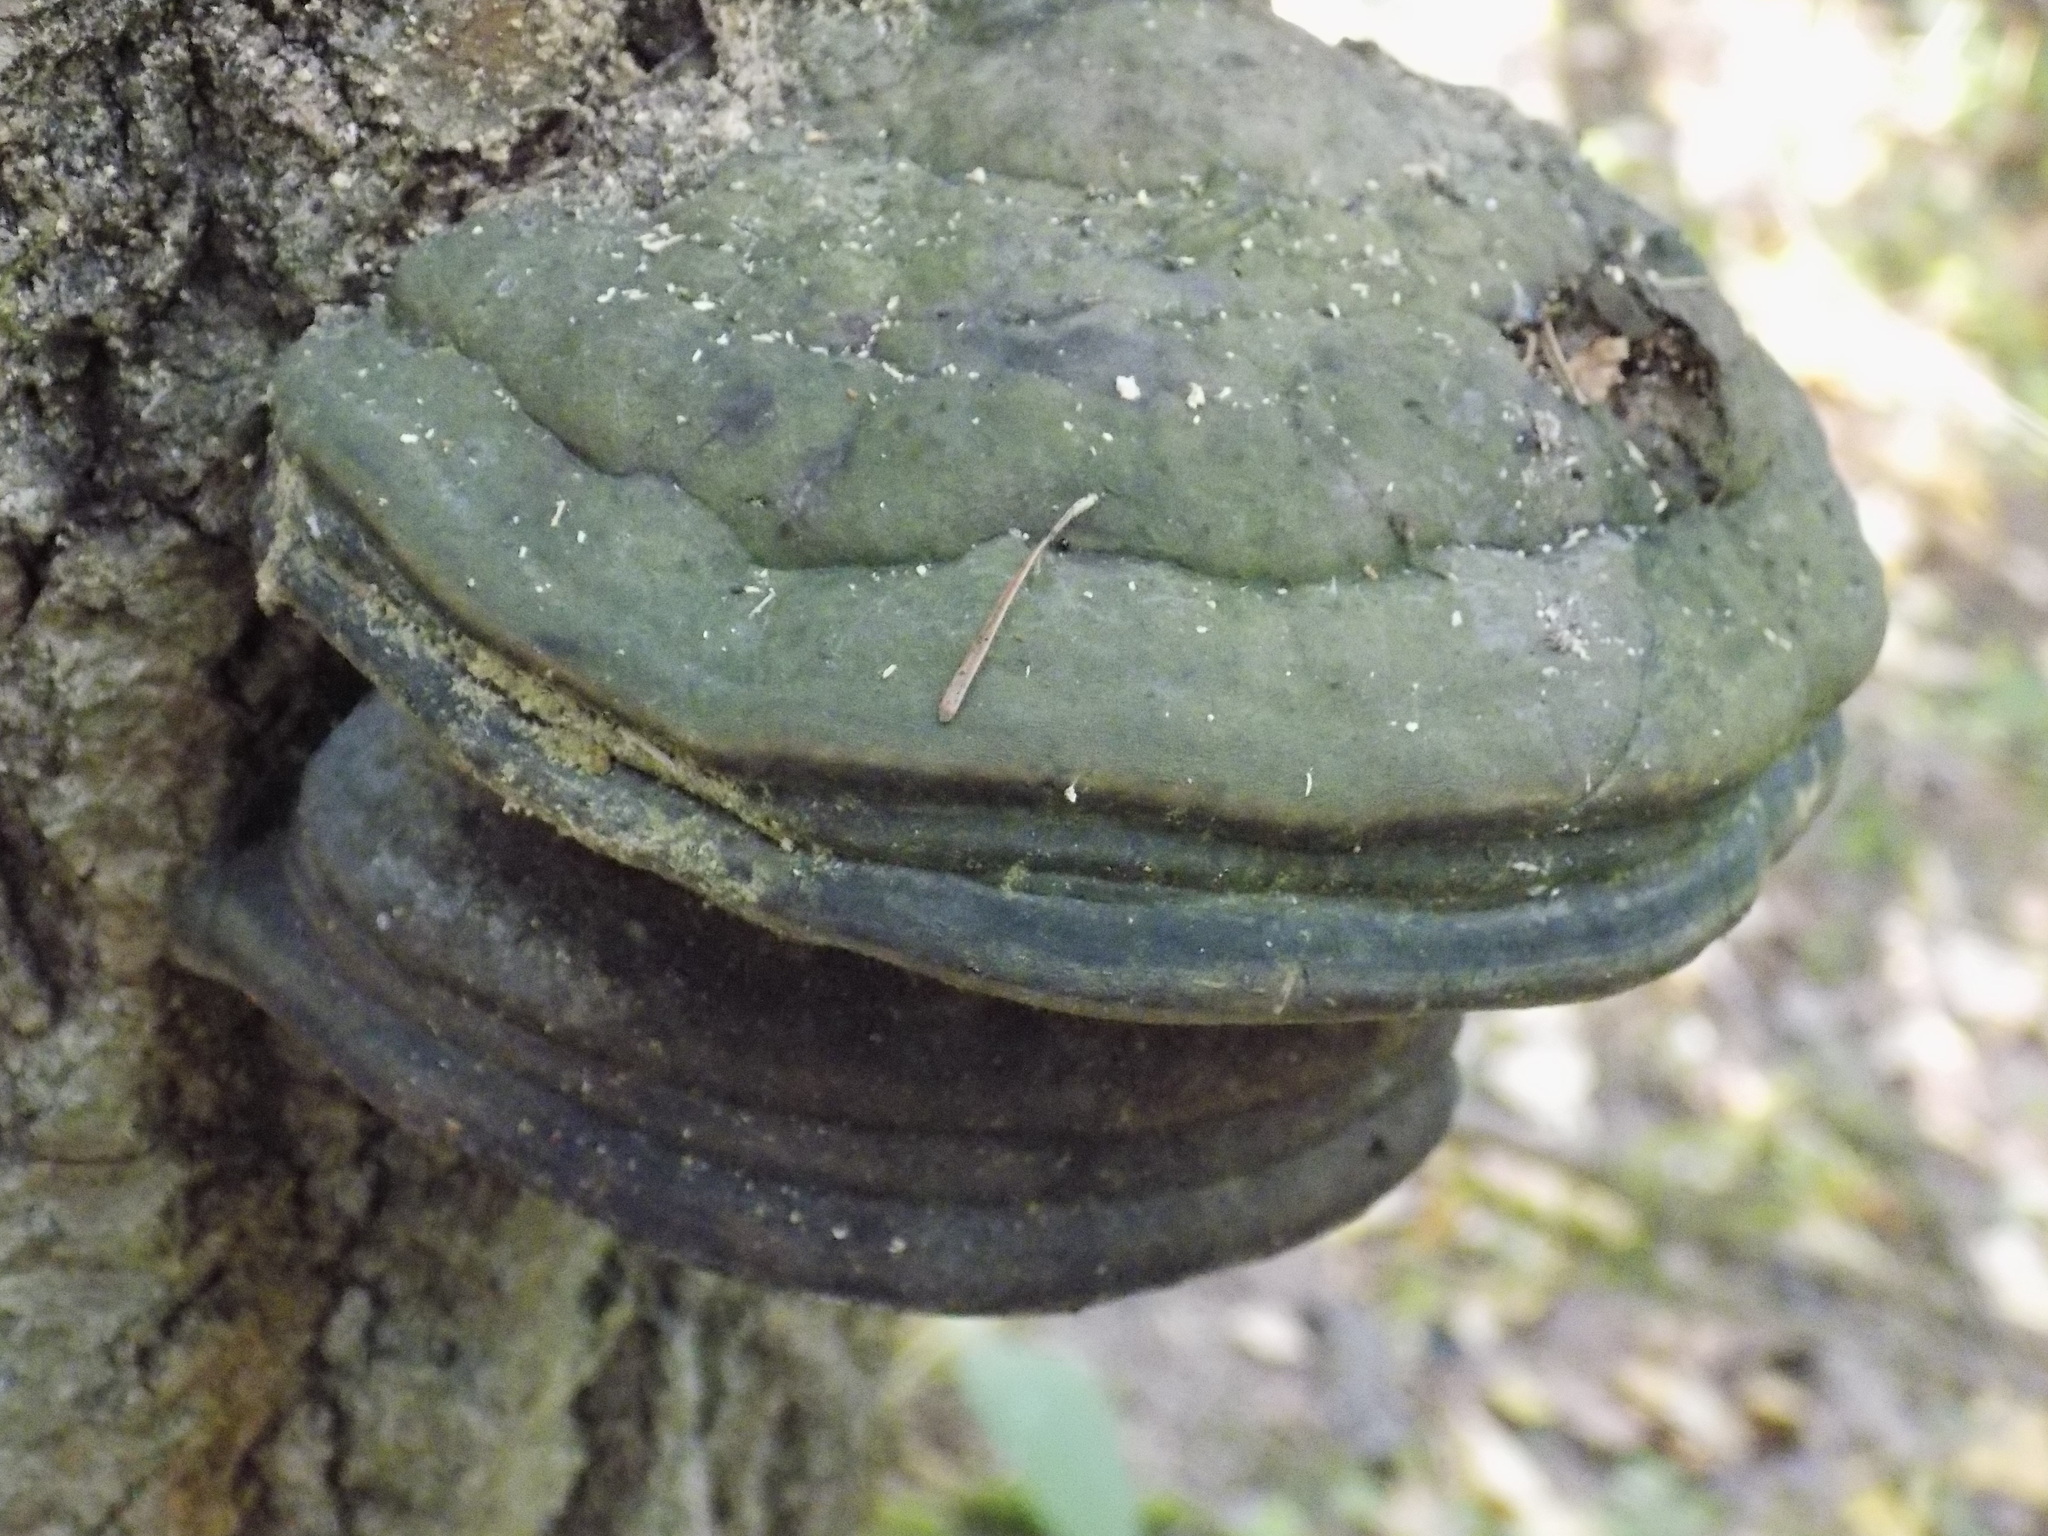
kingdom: Fungi
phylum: Basidiomycota
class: Agaricomycetes
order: Polyporales
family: Polyporaceae
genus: Fomes
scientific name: Fomes fomentarius
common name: Hoof fungus
